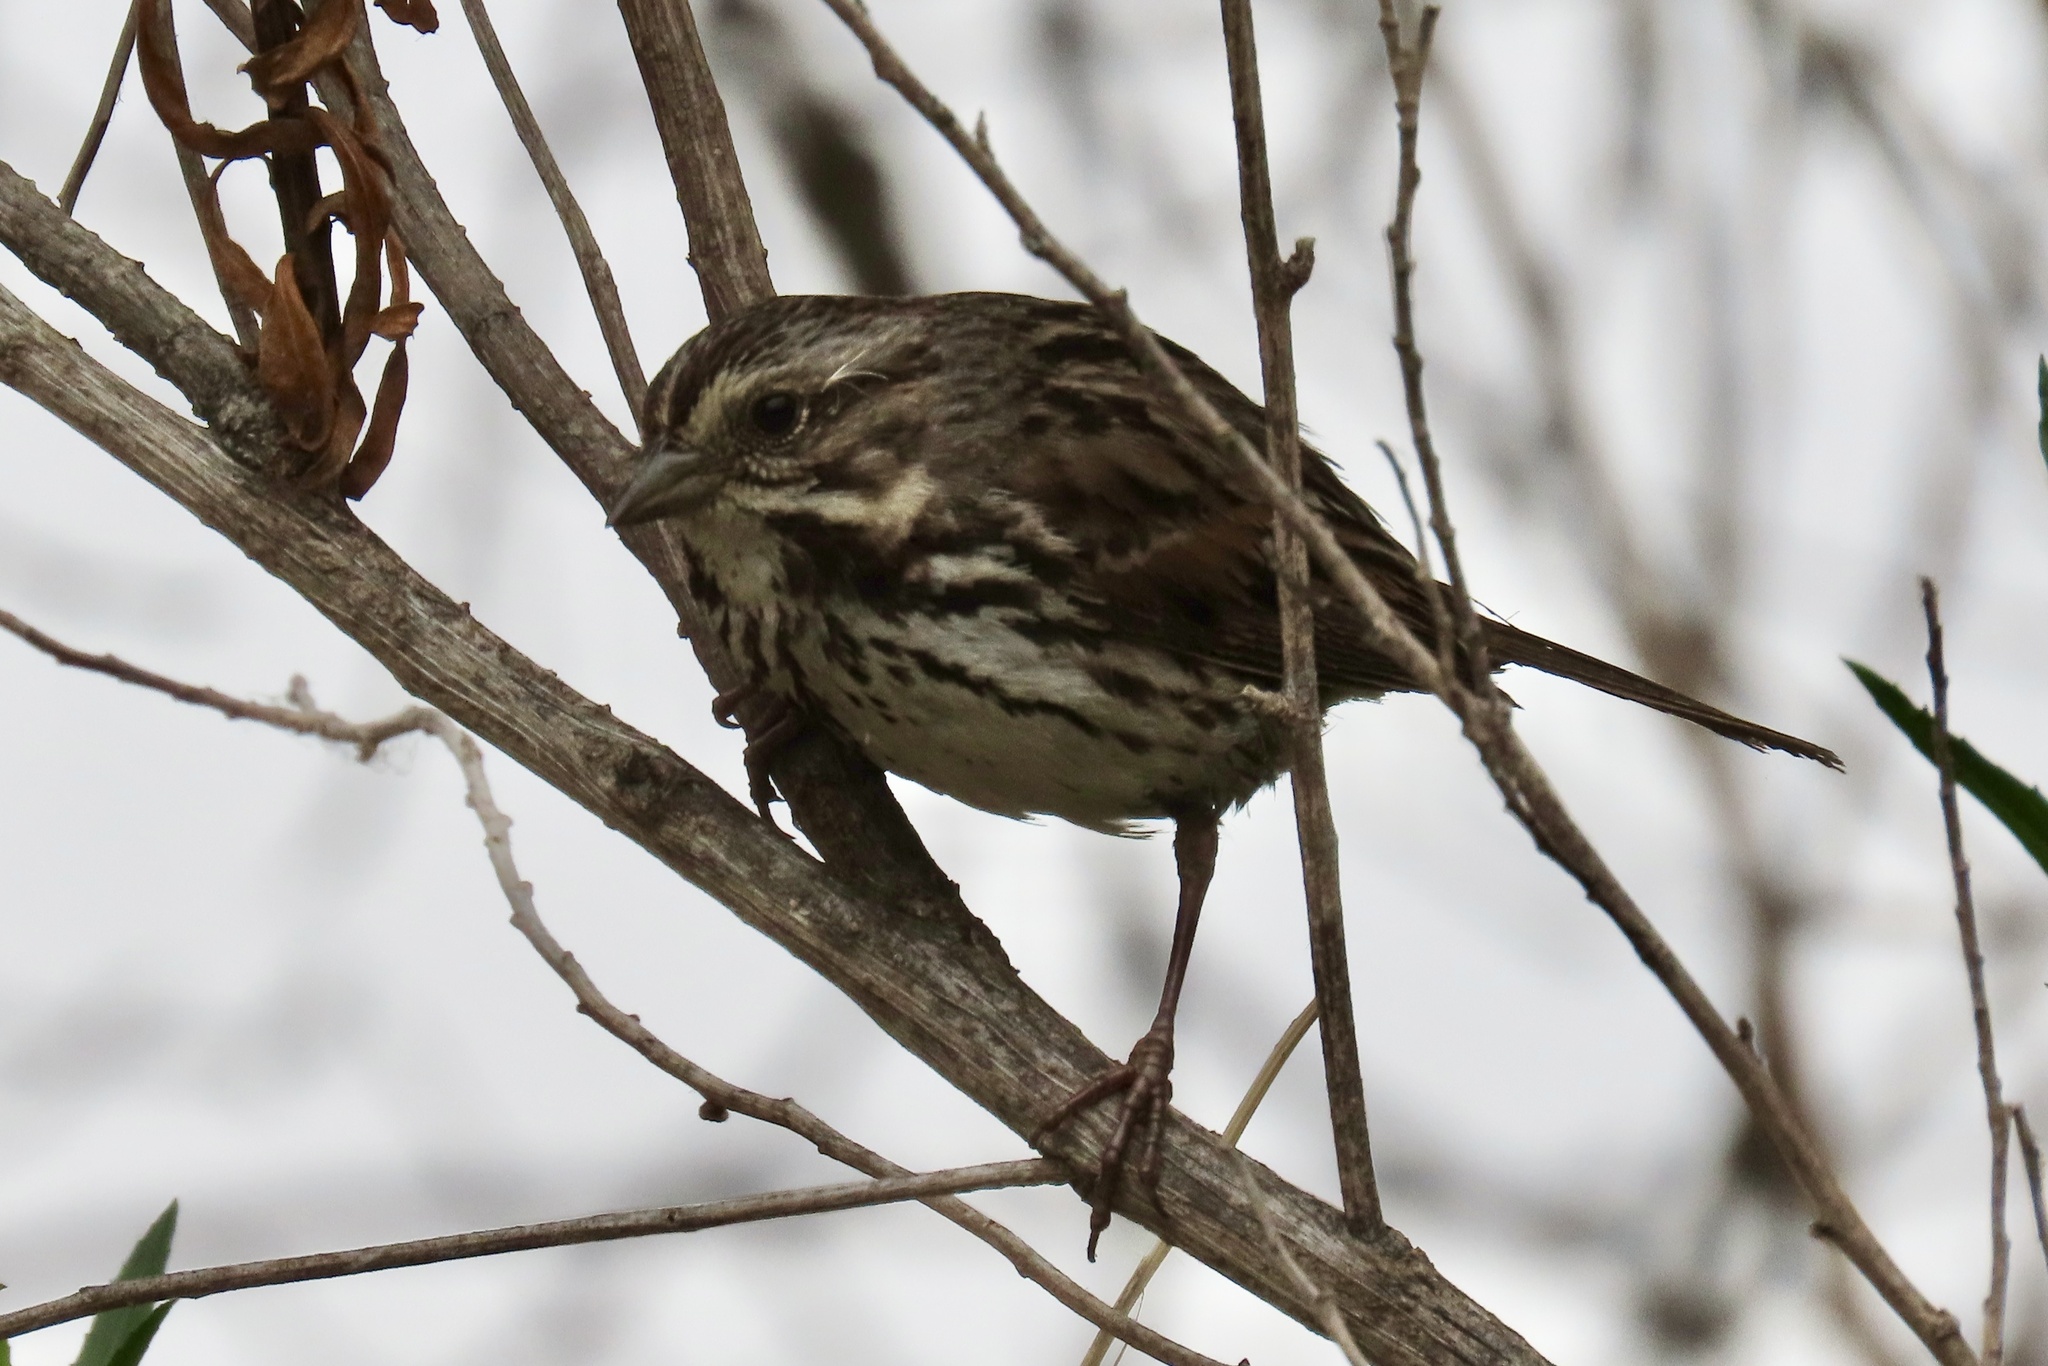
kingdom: Animalia
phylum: Chordata
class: Aves
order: Passeriformes
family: Passerellidae
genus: Melospiza
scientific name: Melospiza melodia
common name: Song sparrow
